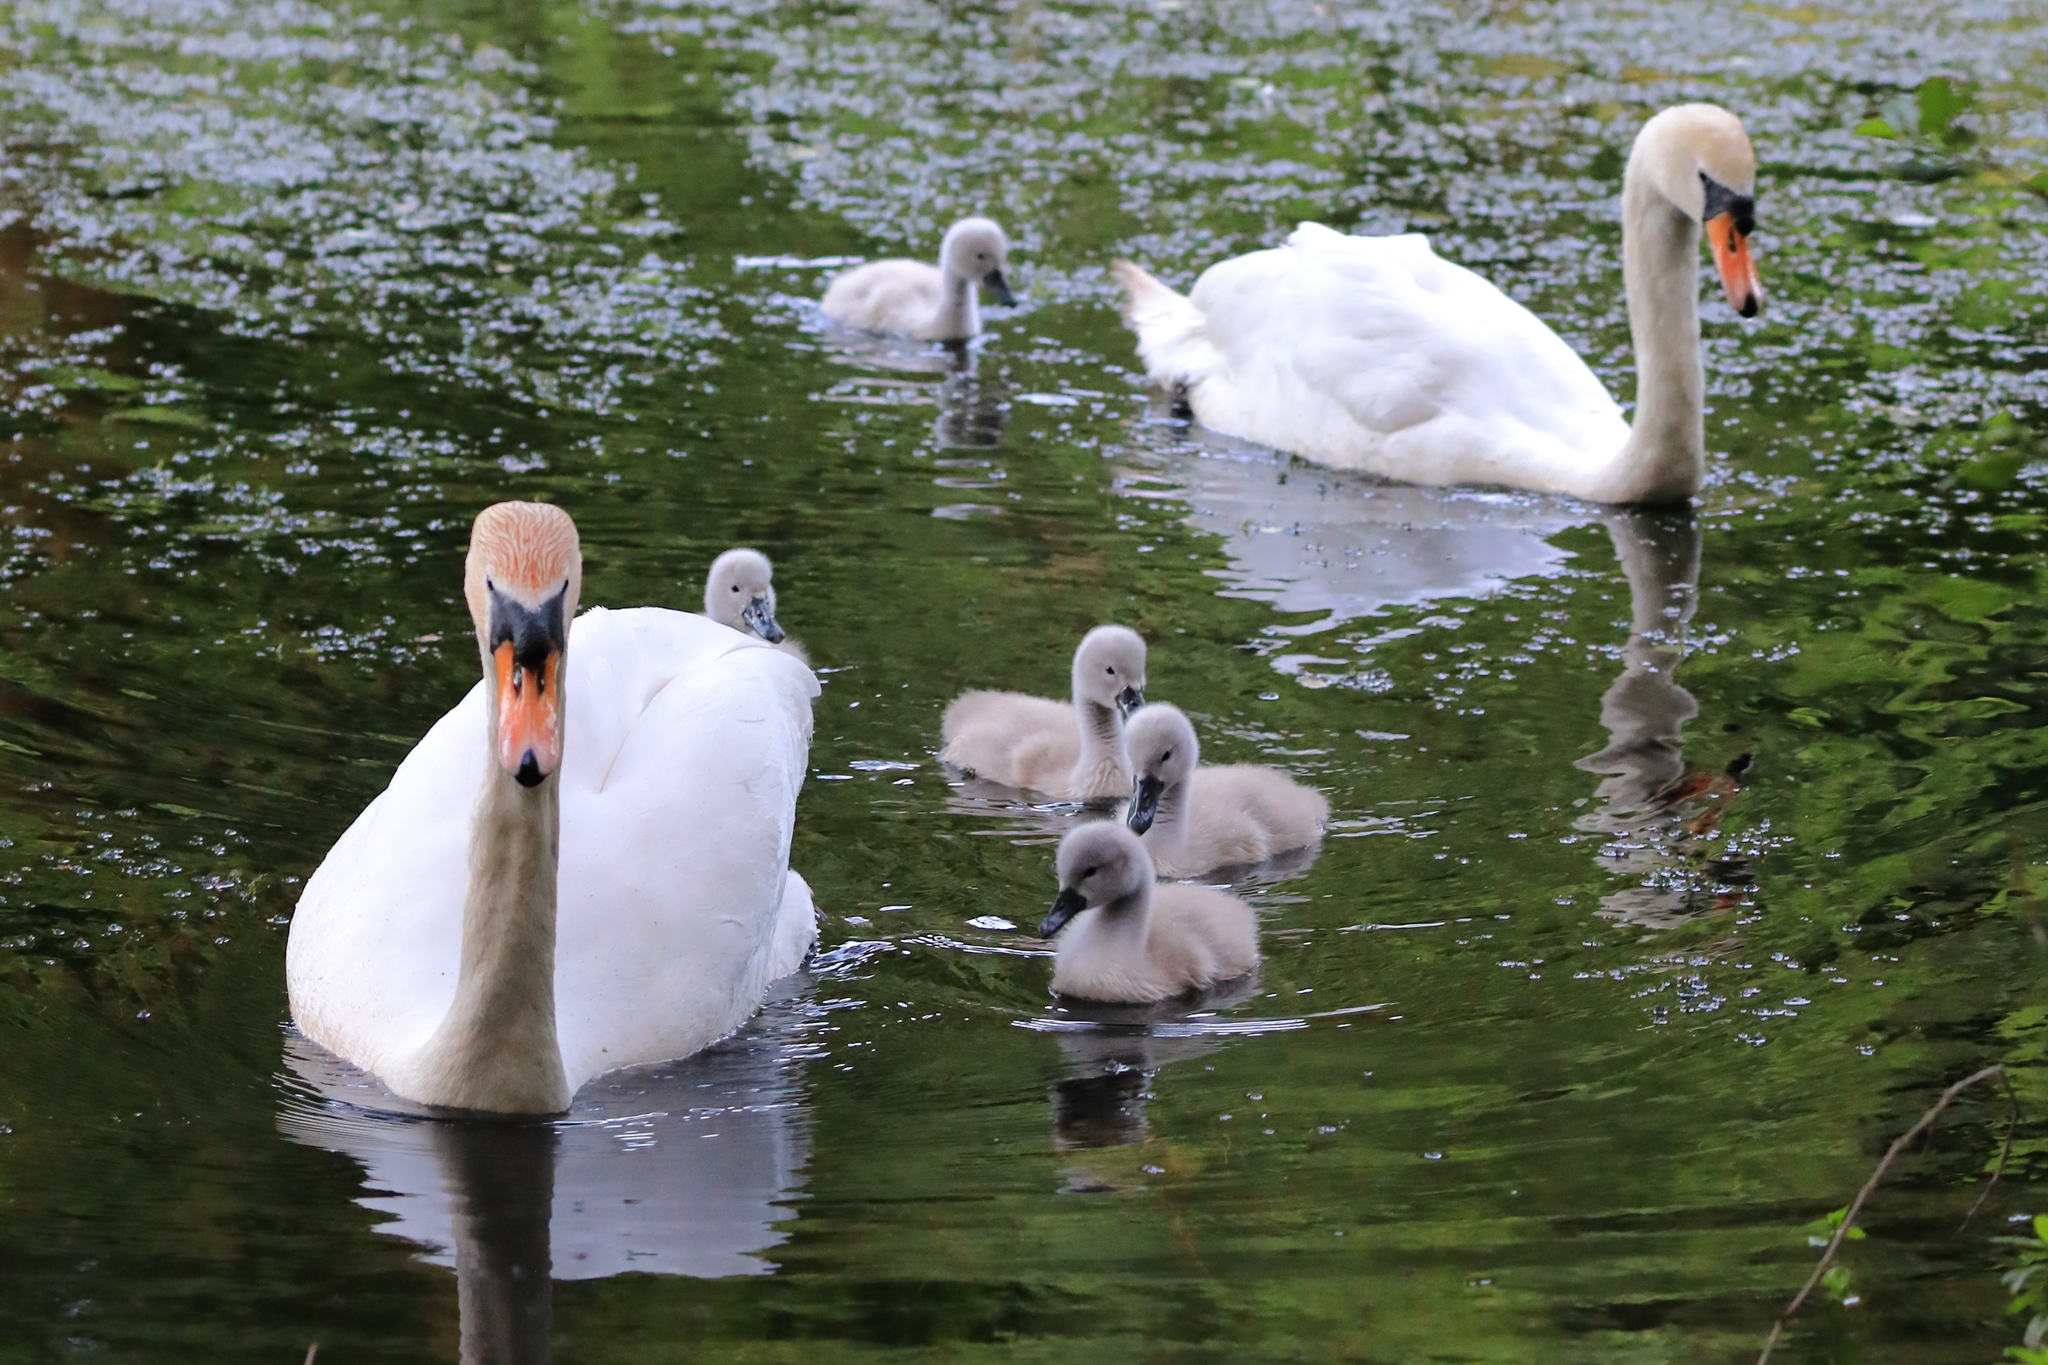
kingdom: Animalia
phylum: Chordata
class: Aves
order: Anseriformes
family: Anatidae
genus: Cygnus
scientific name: Cygnus olor
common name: Mute swan
